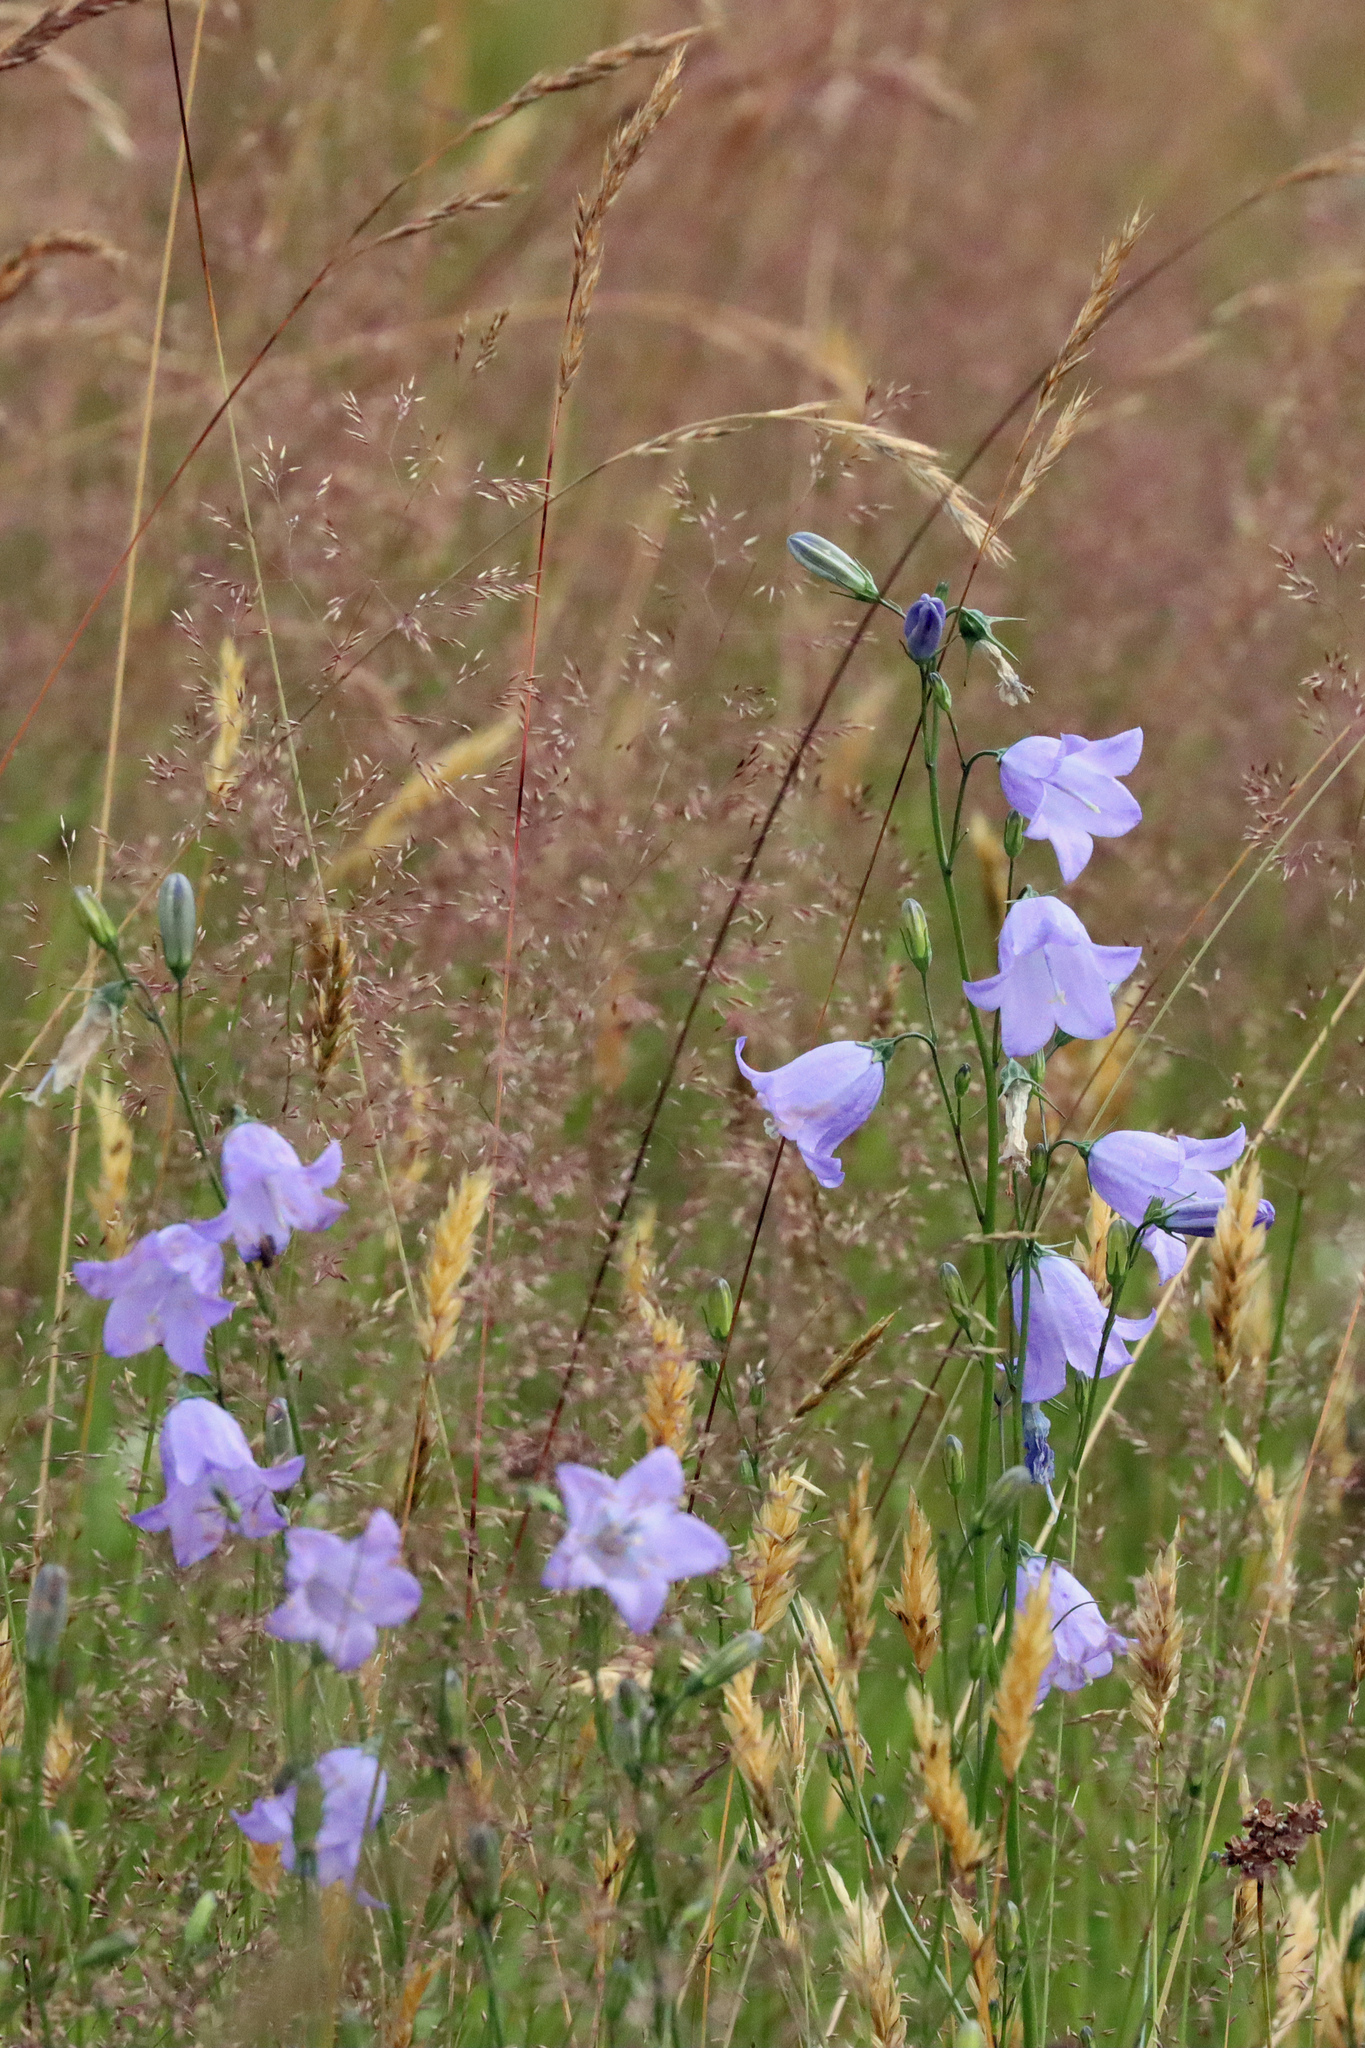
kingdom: Plantae
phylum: Tracheophyta
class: Magnoliopsida
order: Asterales
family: Campanulaceae
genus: Campanula
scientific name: Campanula rotundifolia
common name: Harebell
